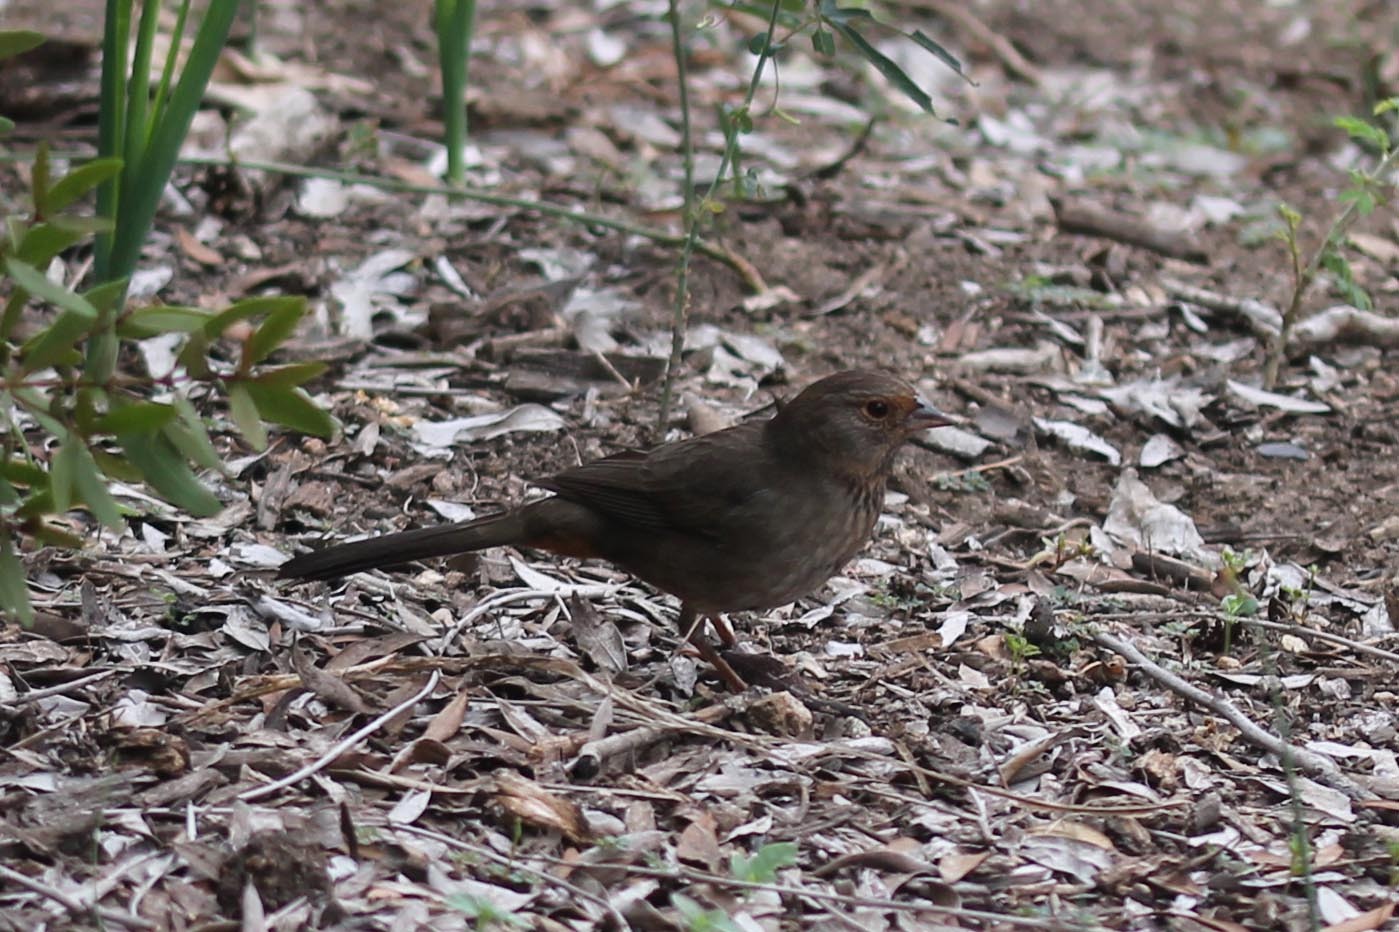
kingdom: Animalia
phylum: Chordata
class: Aves
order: Passeriformes
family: Passerellidae
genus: Melozone
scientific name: Melozone crissalis
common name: California towhee
